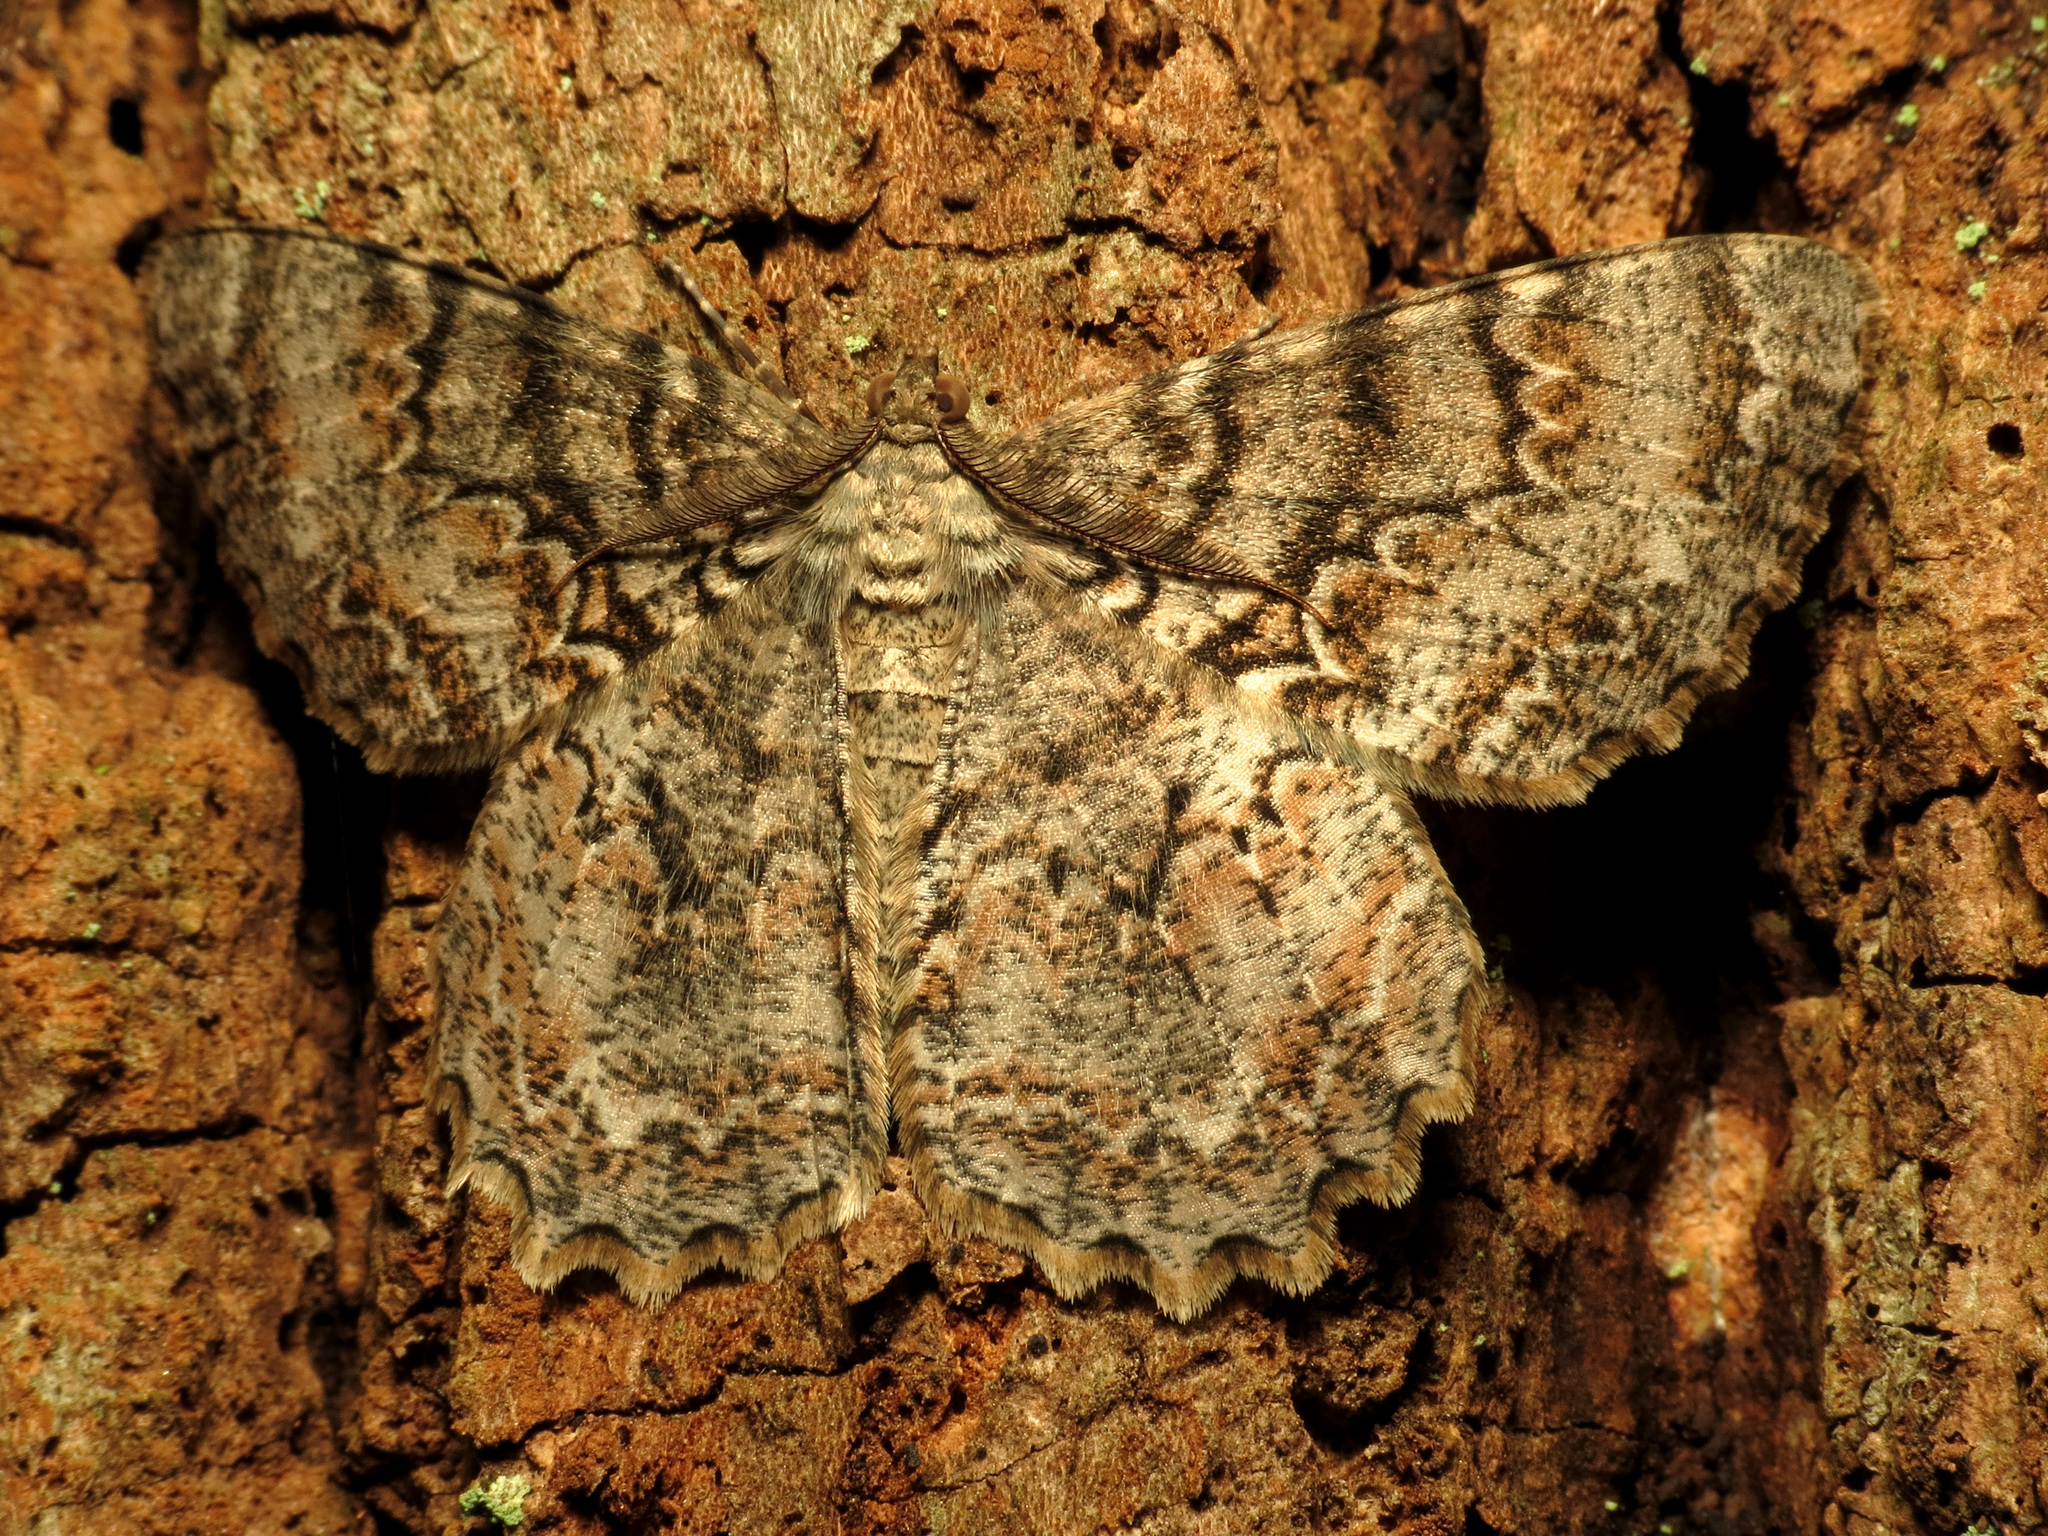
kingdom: Animalia
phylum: Arthropoda
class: Insecta
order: Lepidoptera
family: Geometridae
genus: Epimecis
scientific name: Epimecis hortaria
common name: Tulip-tree beauty
